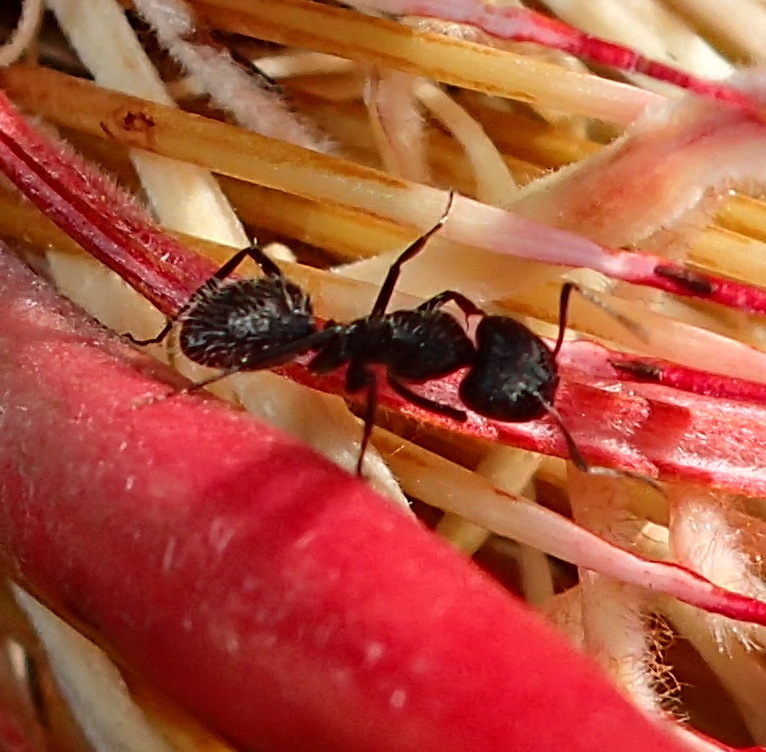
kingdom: Animalia
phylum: Arthropoda
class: Insecta
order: Hymenoptera
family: Formicidae
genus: Camponotus
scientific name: Camponotus niveosetosus
